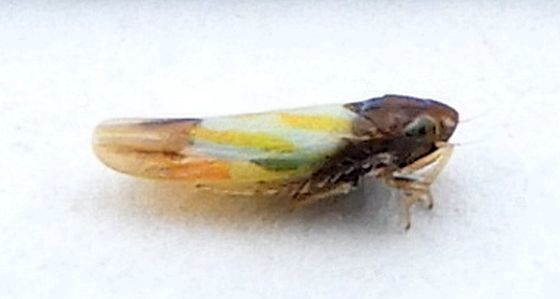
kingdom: Animalia
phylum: Arthropoda
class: Insecta
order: Hemiptera
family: Cicadellidae
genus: Erythridula
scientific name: Erythridula bitincta
